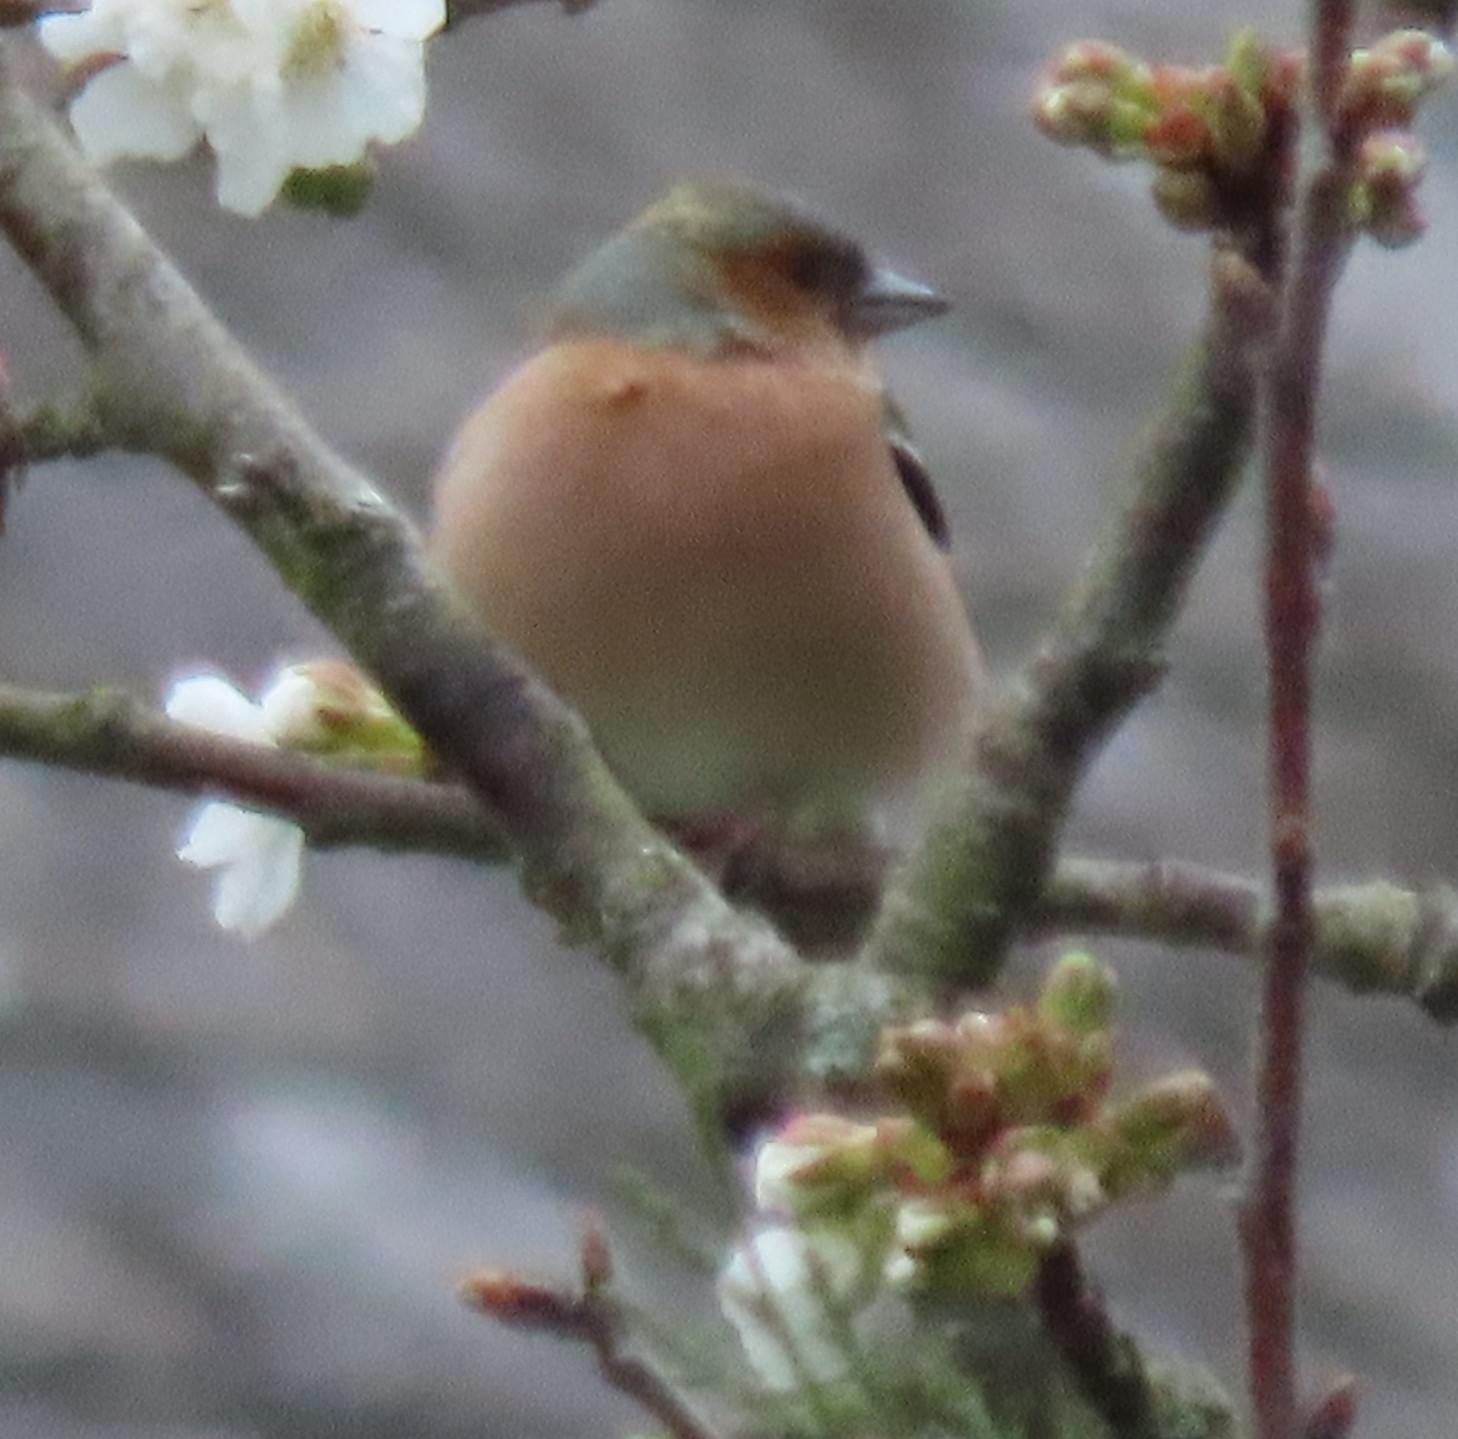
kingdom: Animalia
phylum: Chordata
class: Aves
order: Passeriformes
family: Muscicapidae
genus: Erithacus
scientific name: Erithacus rubecula
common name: European robin
